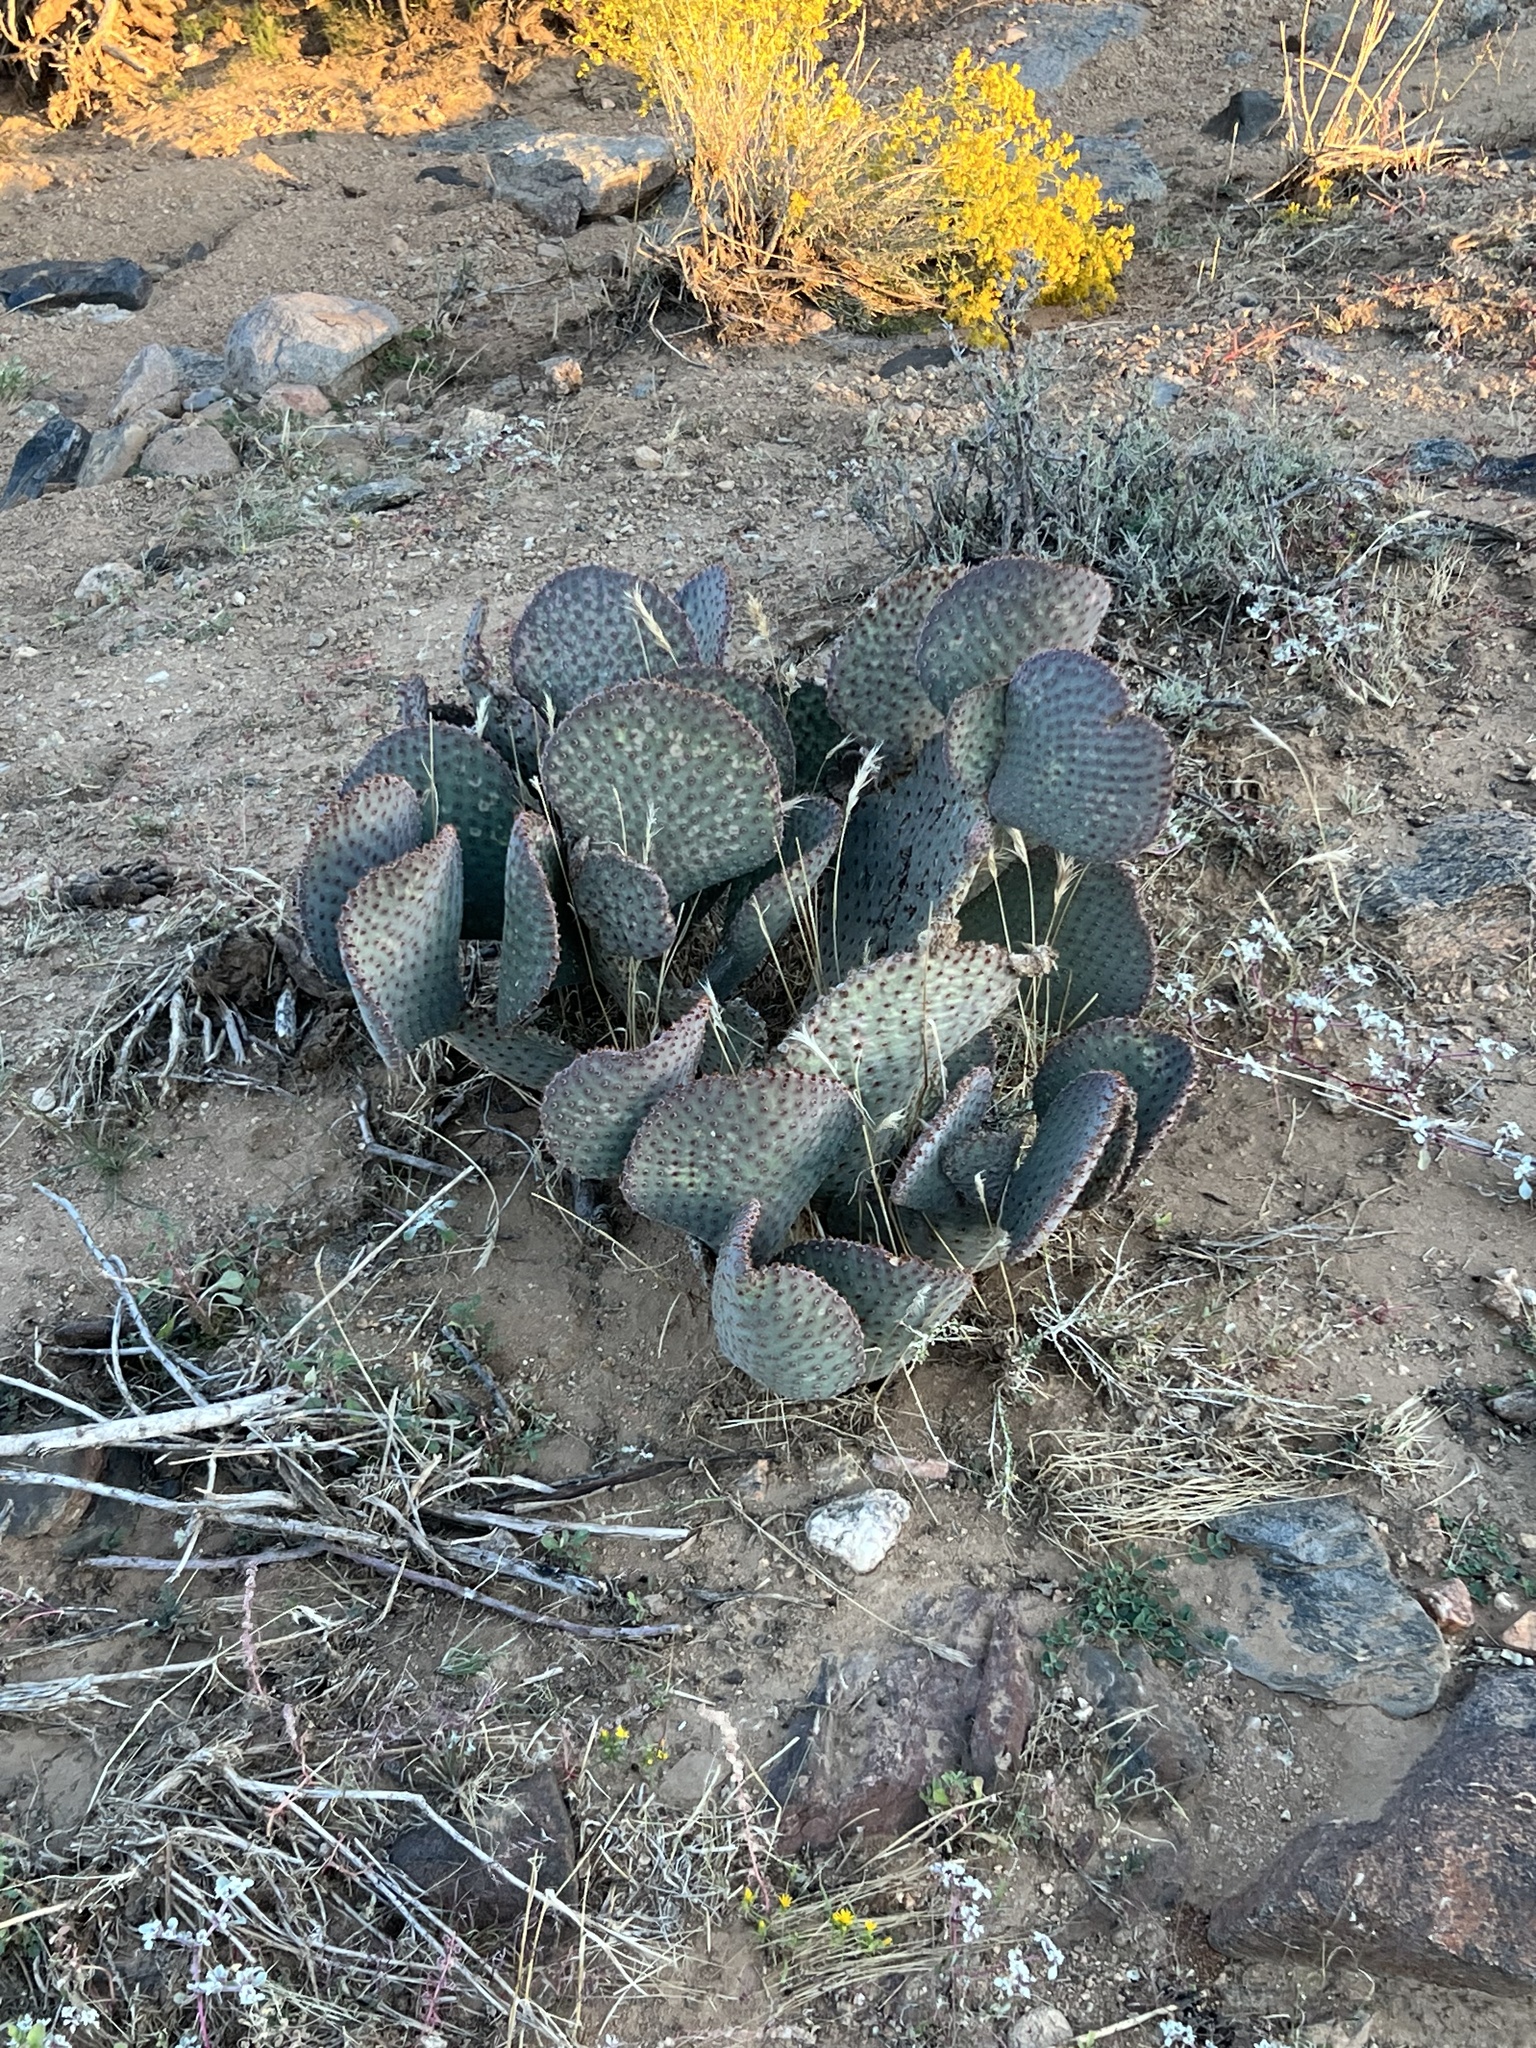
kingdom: Plantae
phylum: Tracheophyta
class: Magnoliopsida
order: Caryophyllales
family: Cactaceae
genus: Opuntia
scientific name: Opuntia basilaris
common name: Beavertail prickly-pear
